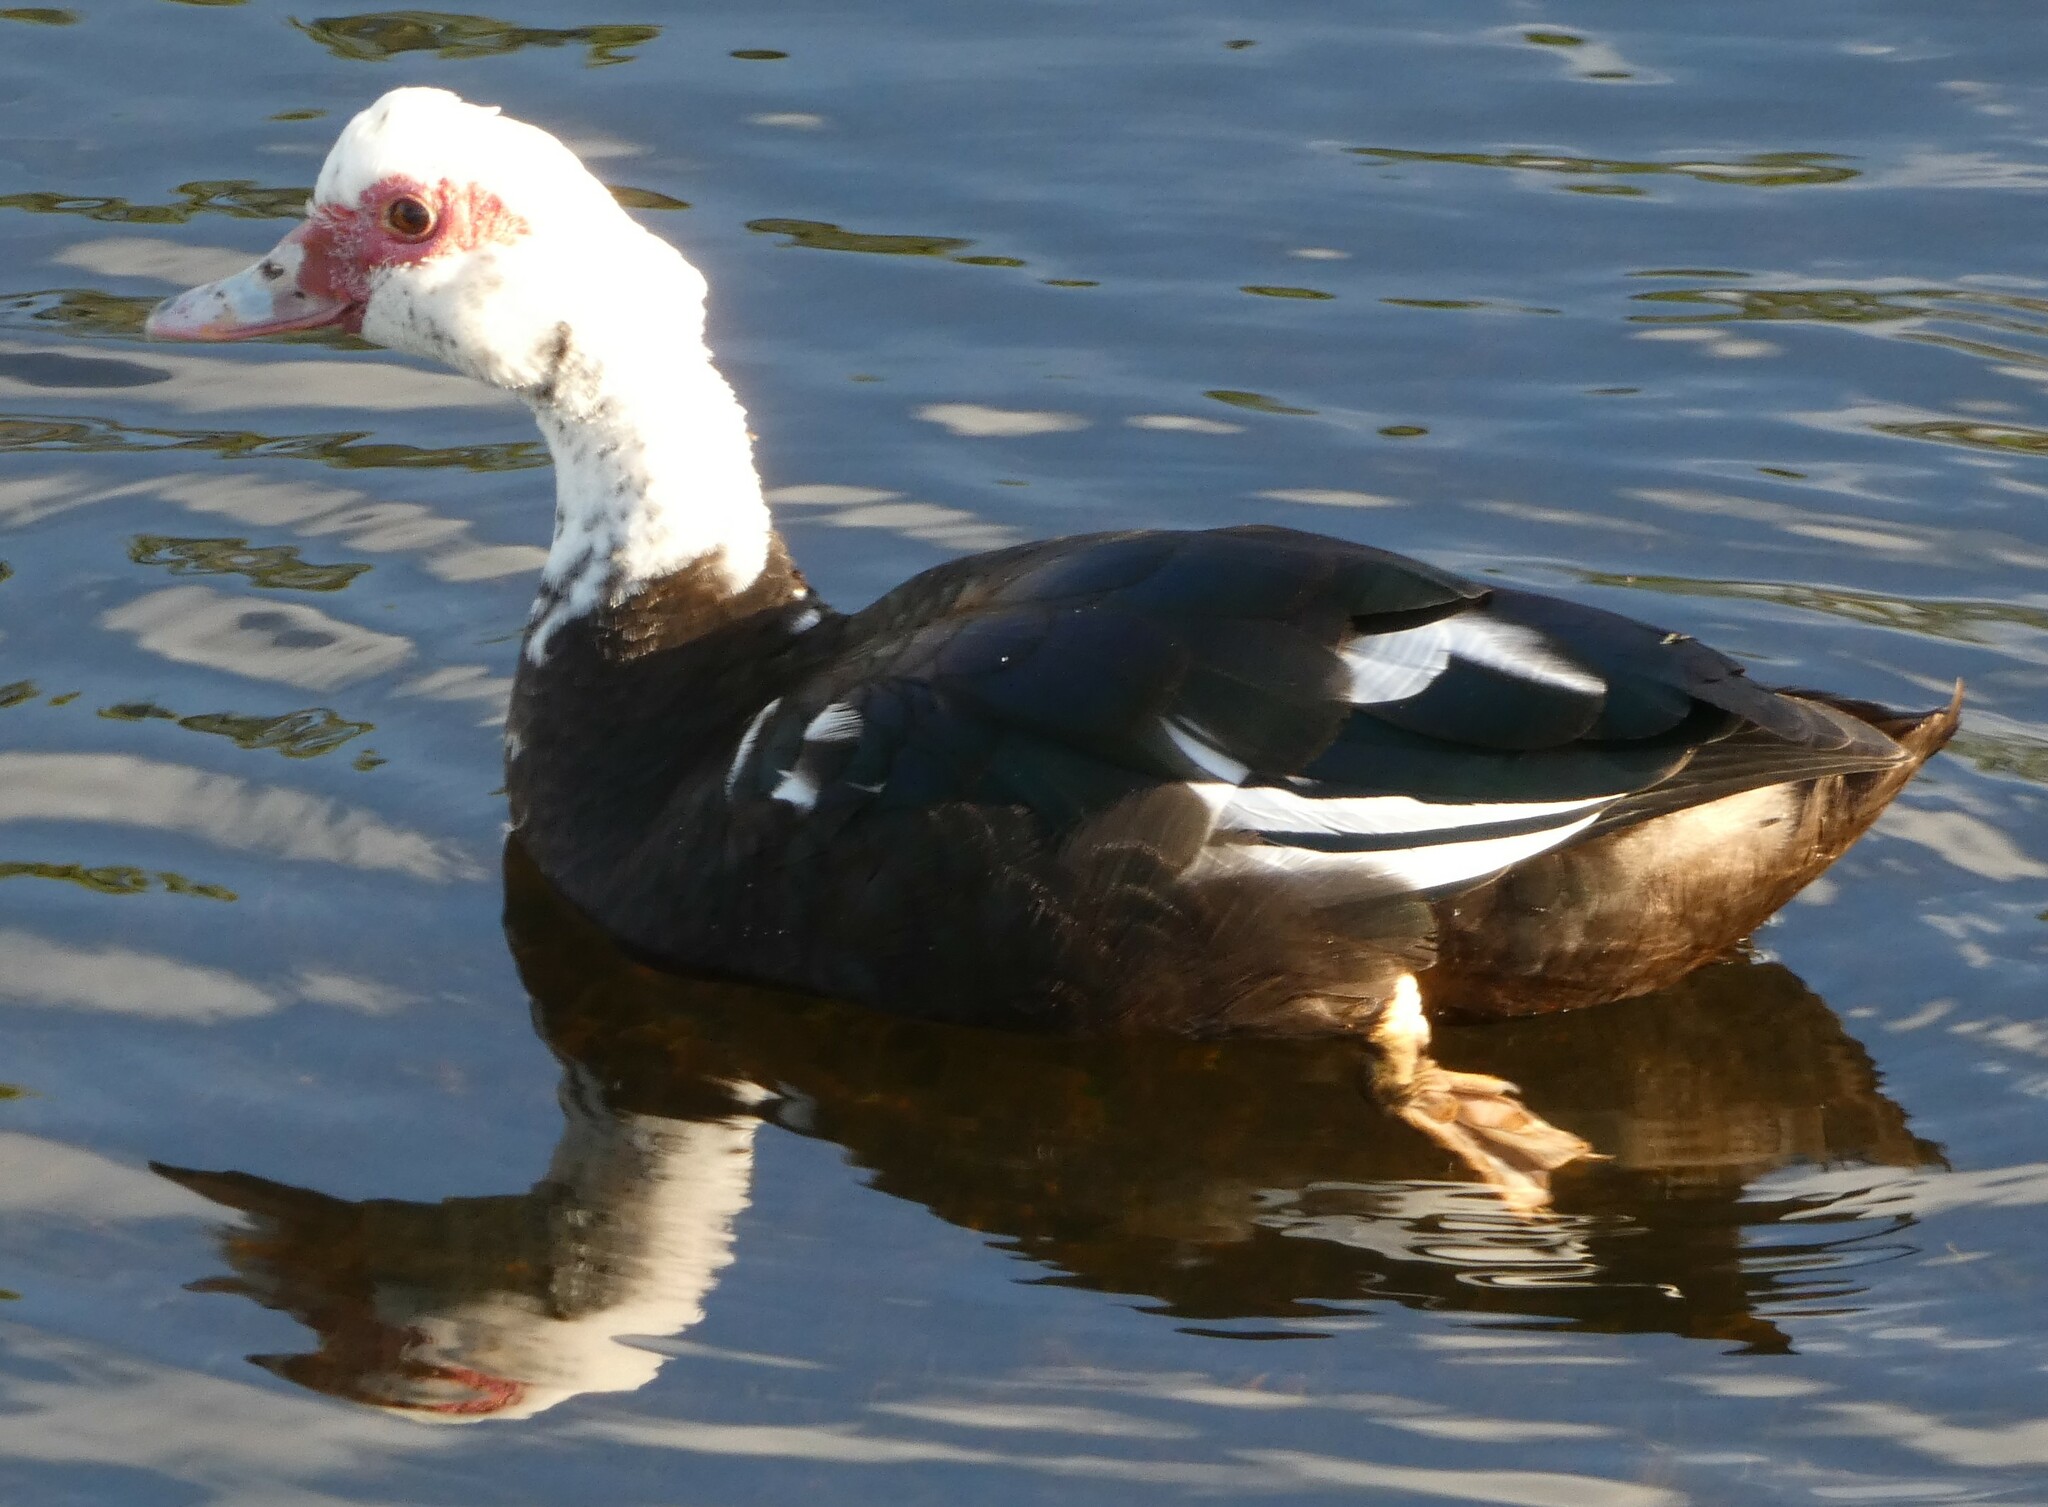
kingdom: Animalia
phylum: Chordata
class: Aves
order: Anseriformes
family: Anatidae
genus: Cairina
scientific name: Cairina moschata
